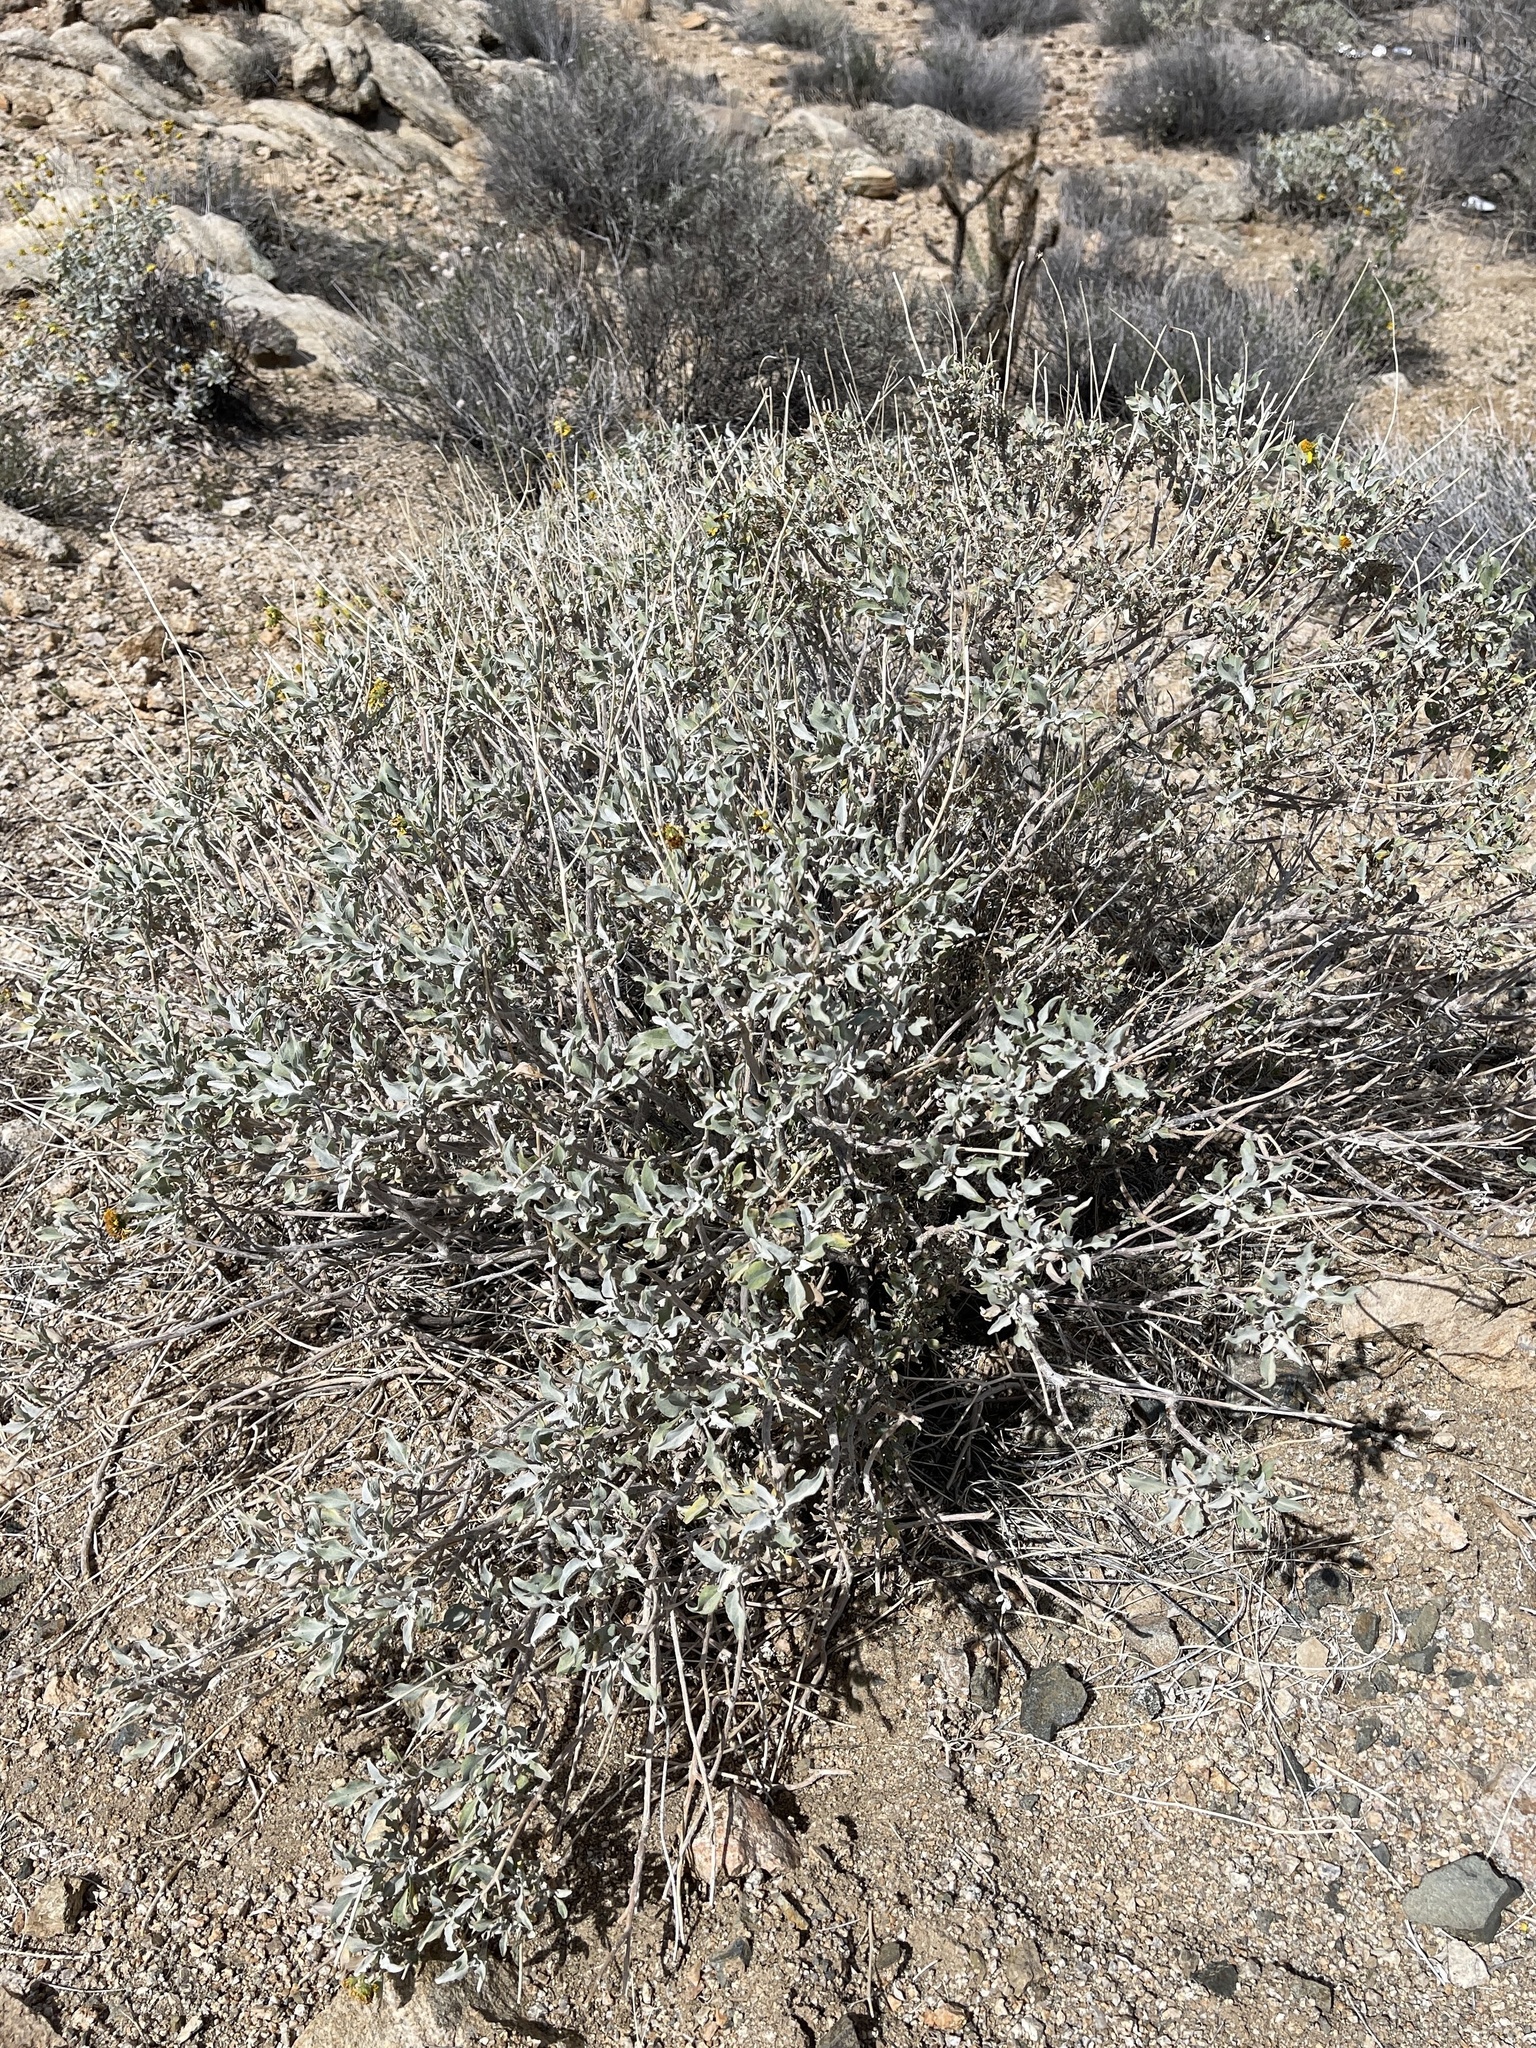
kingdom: Plantae
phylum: Tracheophyta
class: Magnoliopsida
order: Asterales
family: Asteraceae
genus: Encelia
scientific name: Encelia farinosa
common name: Brittlebush
